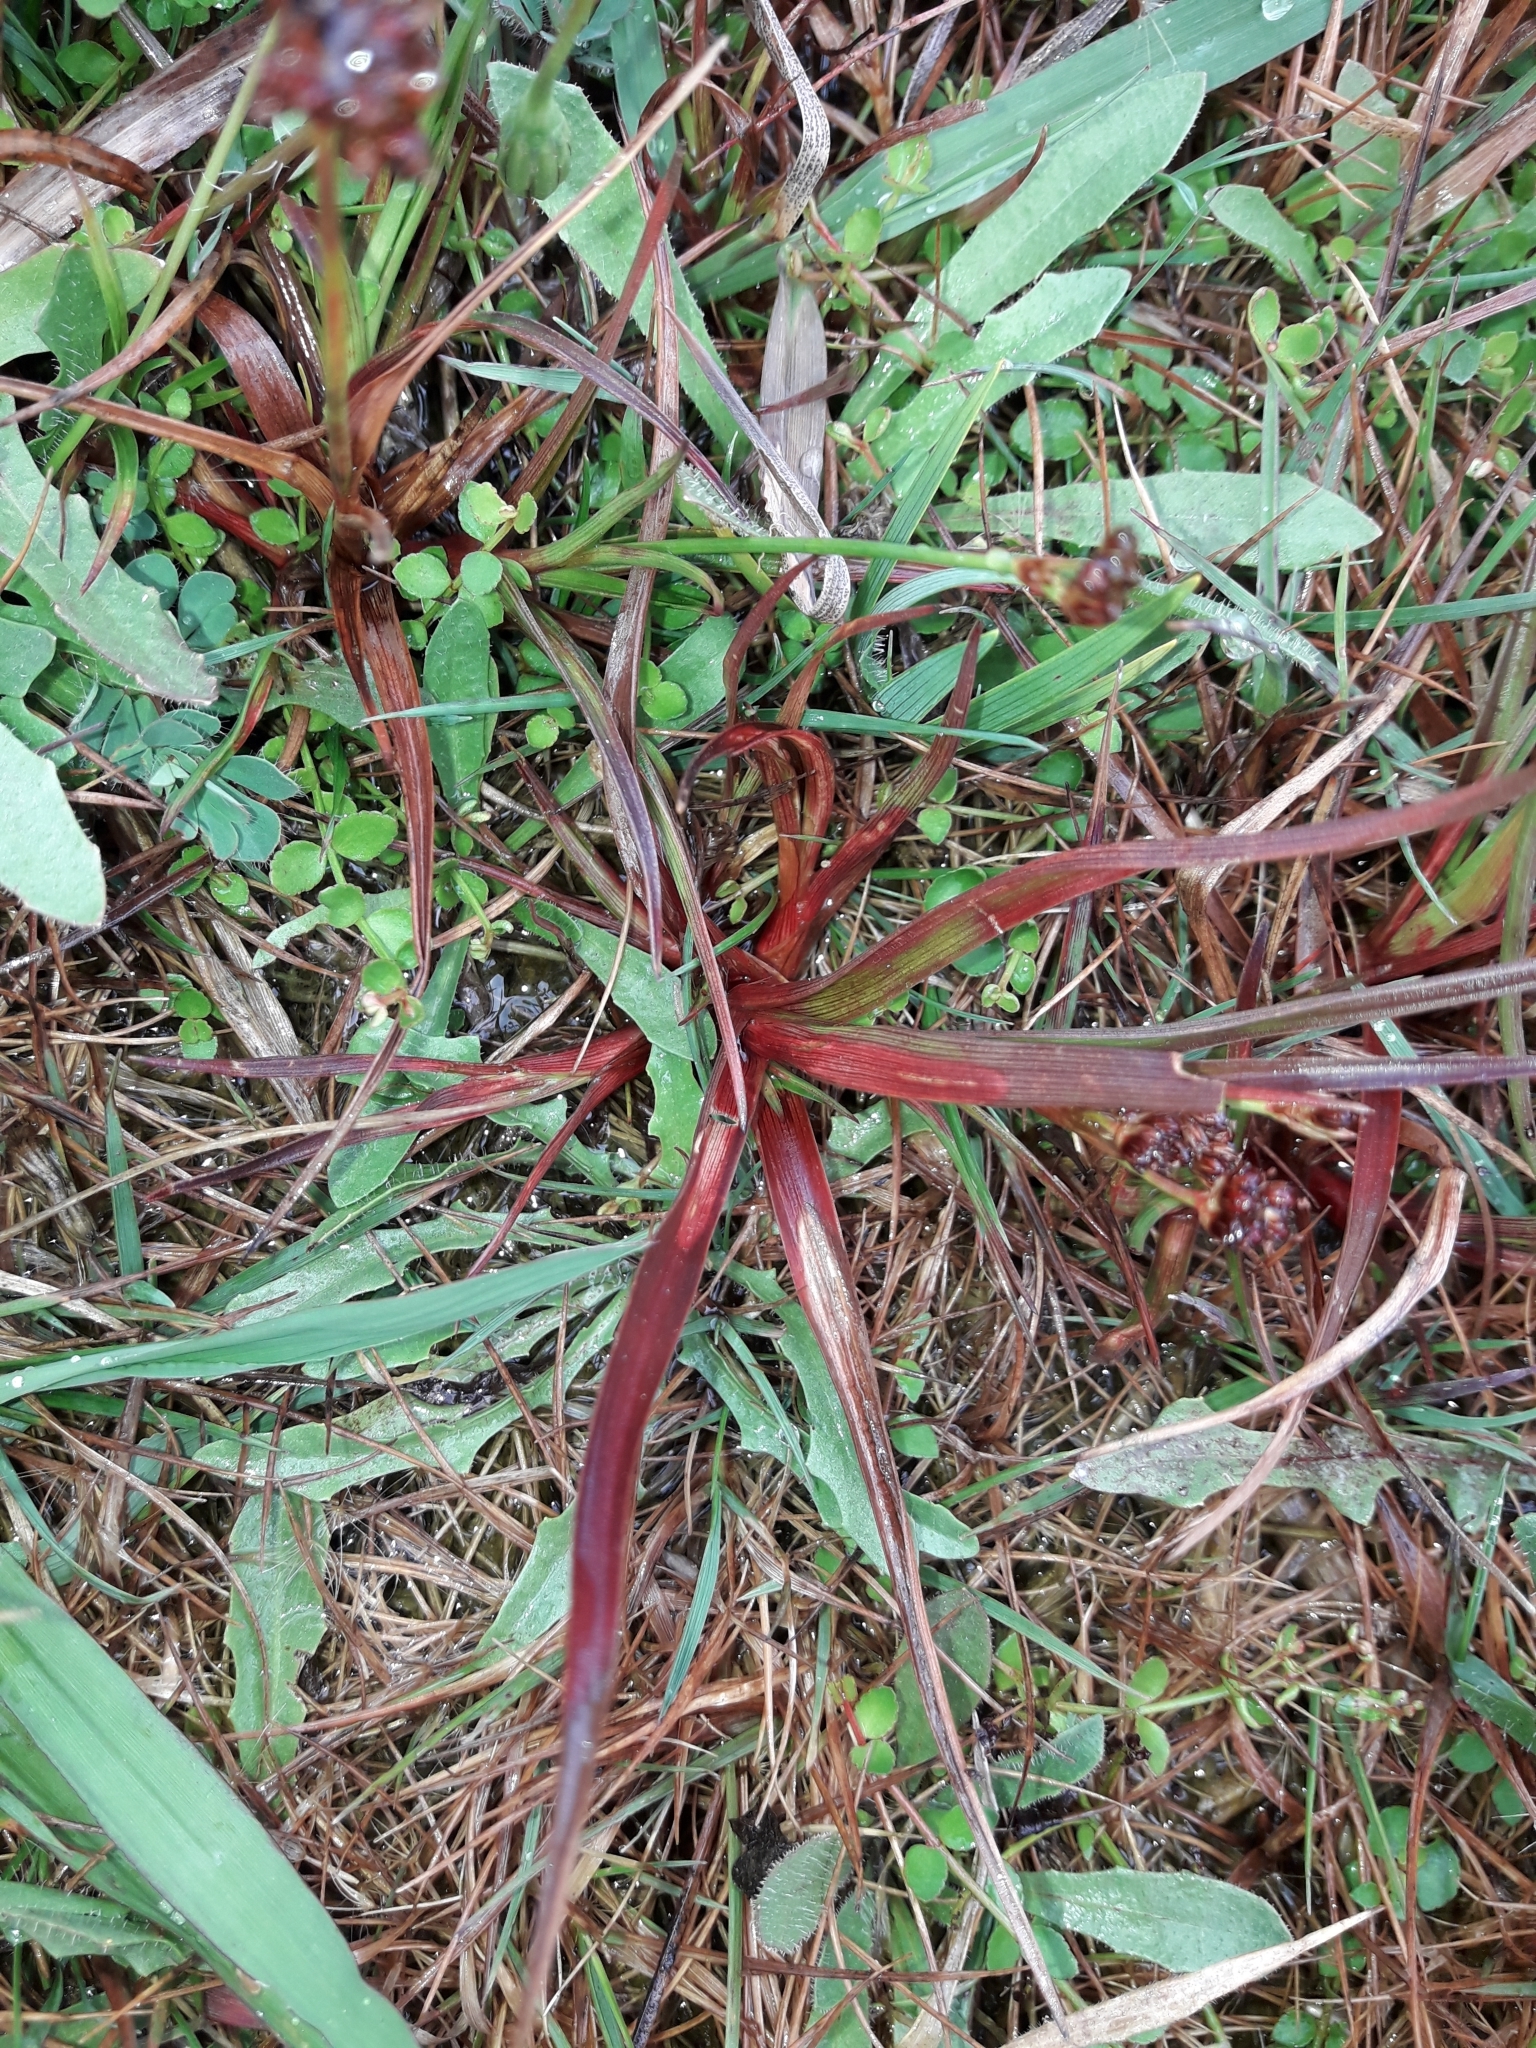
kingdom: Plantae
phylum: Tracheophyta
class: Liliopsida
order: Poales
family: Juncaceae
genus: Juncus
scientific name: Juncus planifolius
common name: Broadleaf rush
